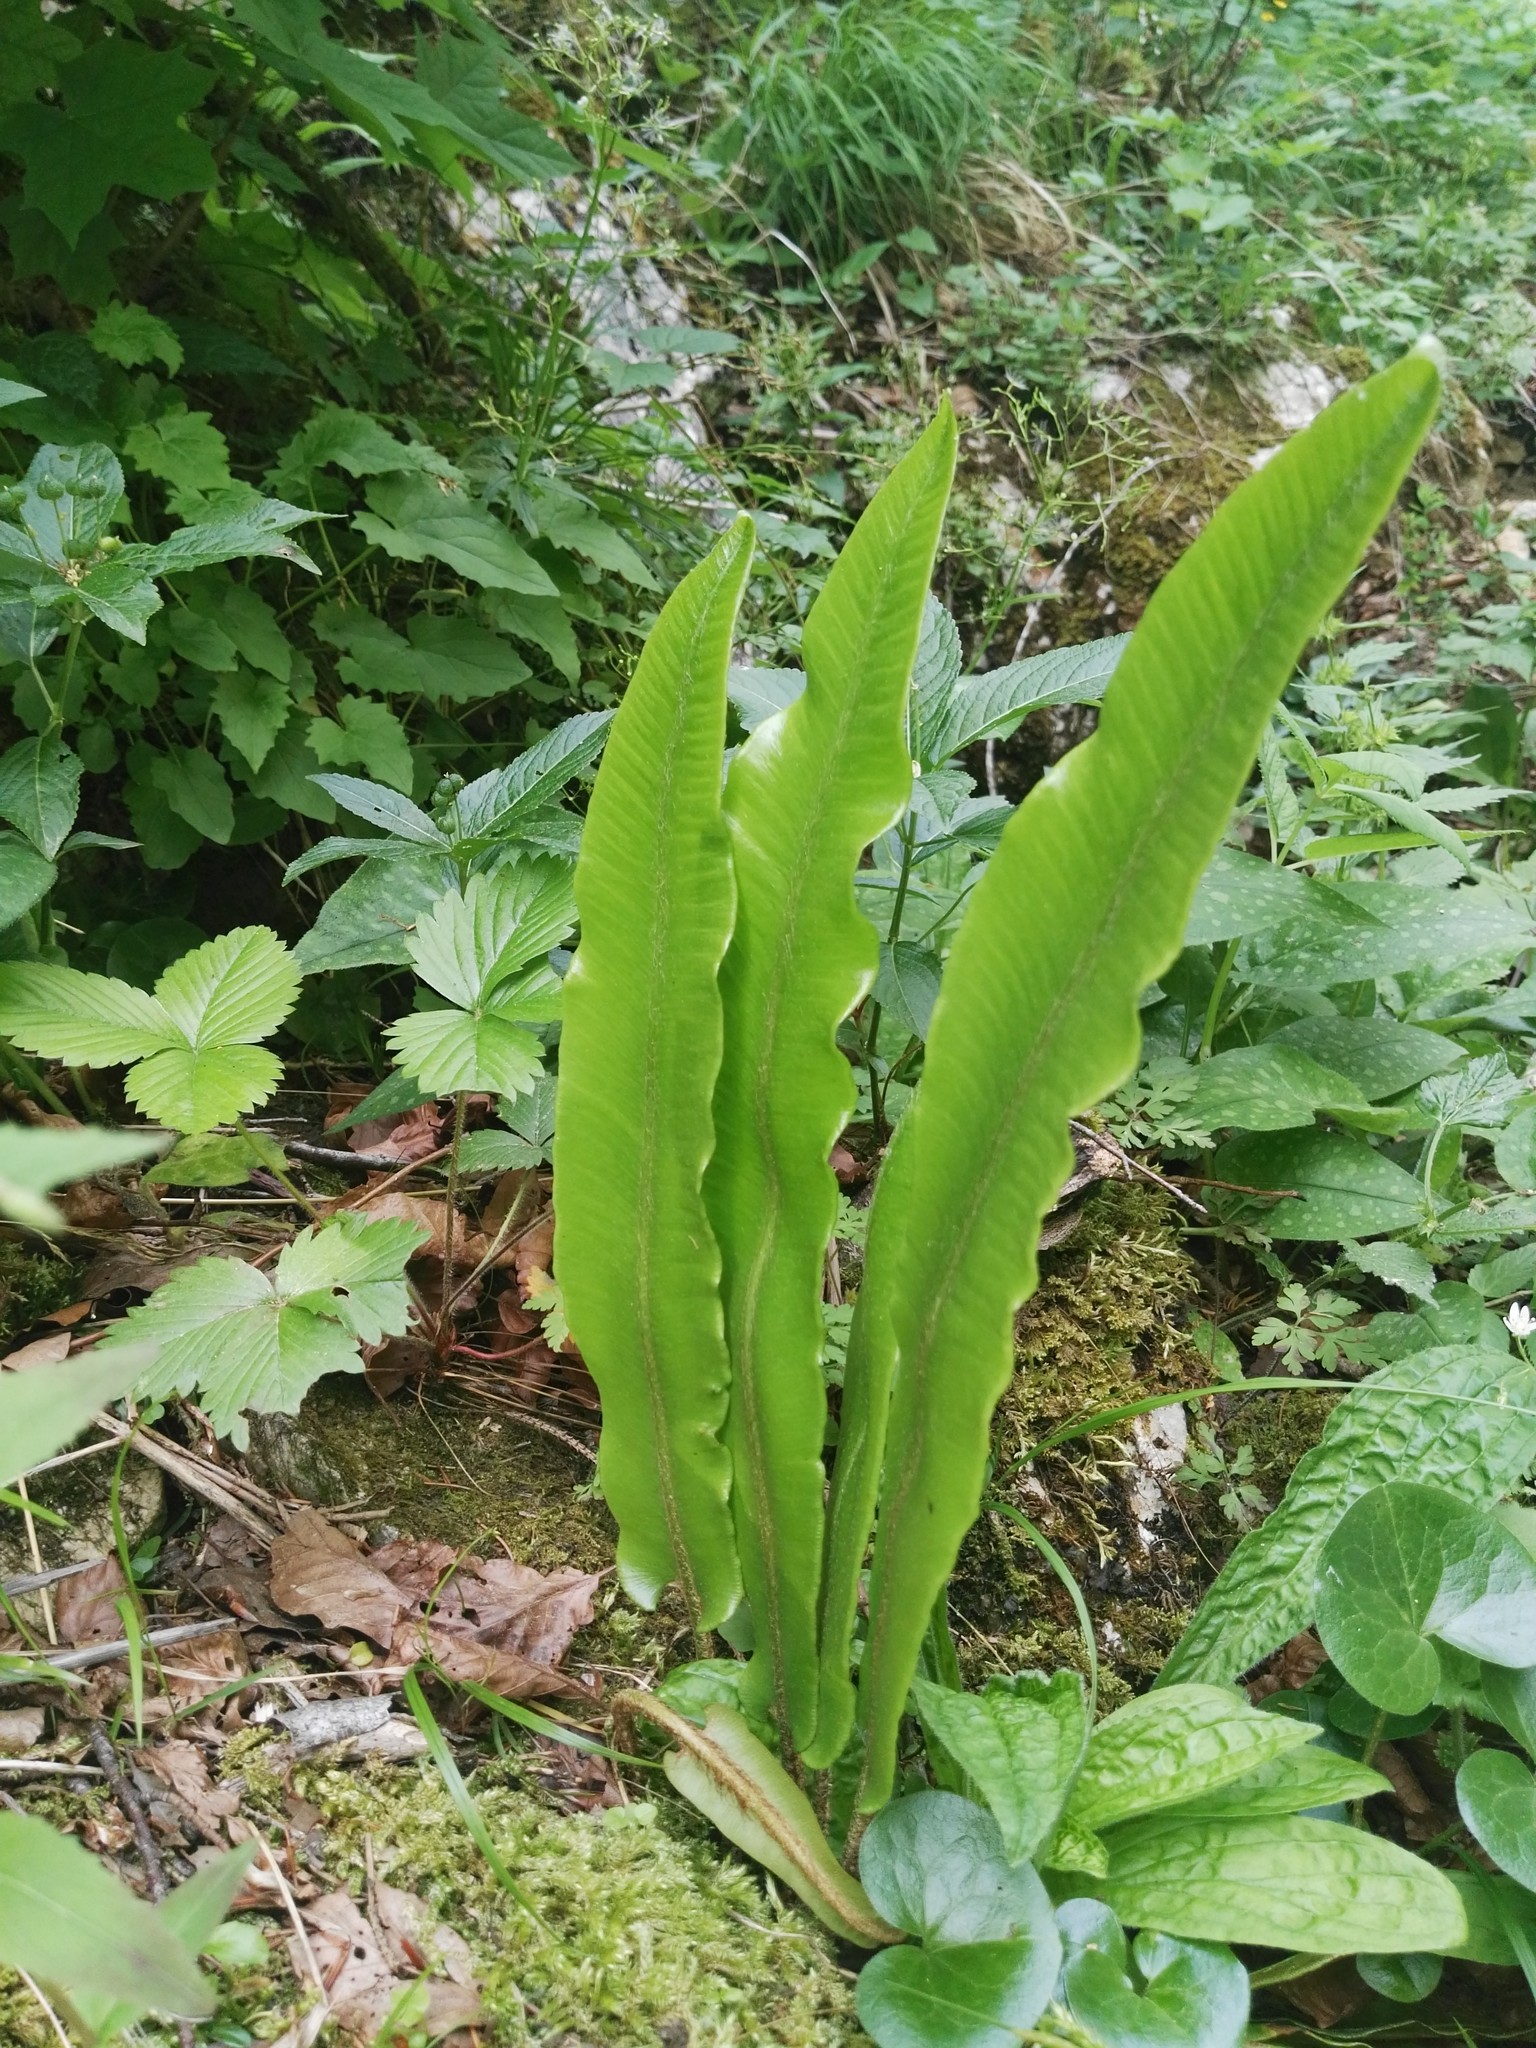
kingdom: Plantae
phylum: Tracheophyta
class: Polypodiopsida
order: Polypodiales
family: Aspleniaceae
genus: Asplenium
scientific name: Asplenium scolopendrium
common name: Hart's-tongue fern
